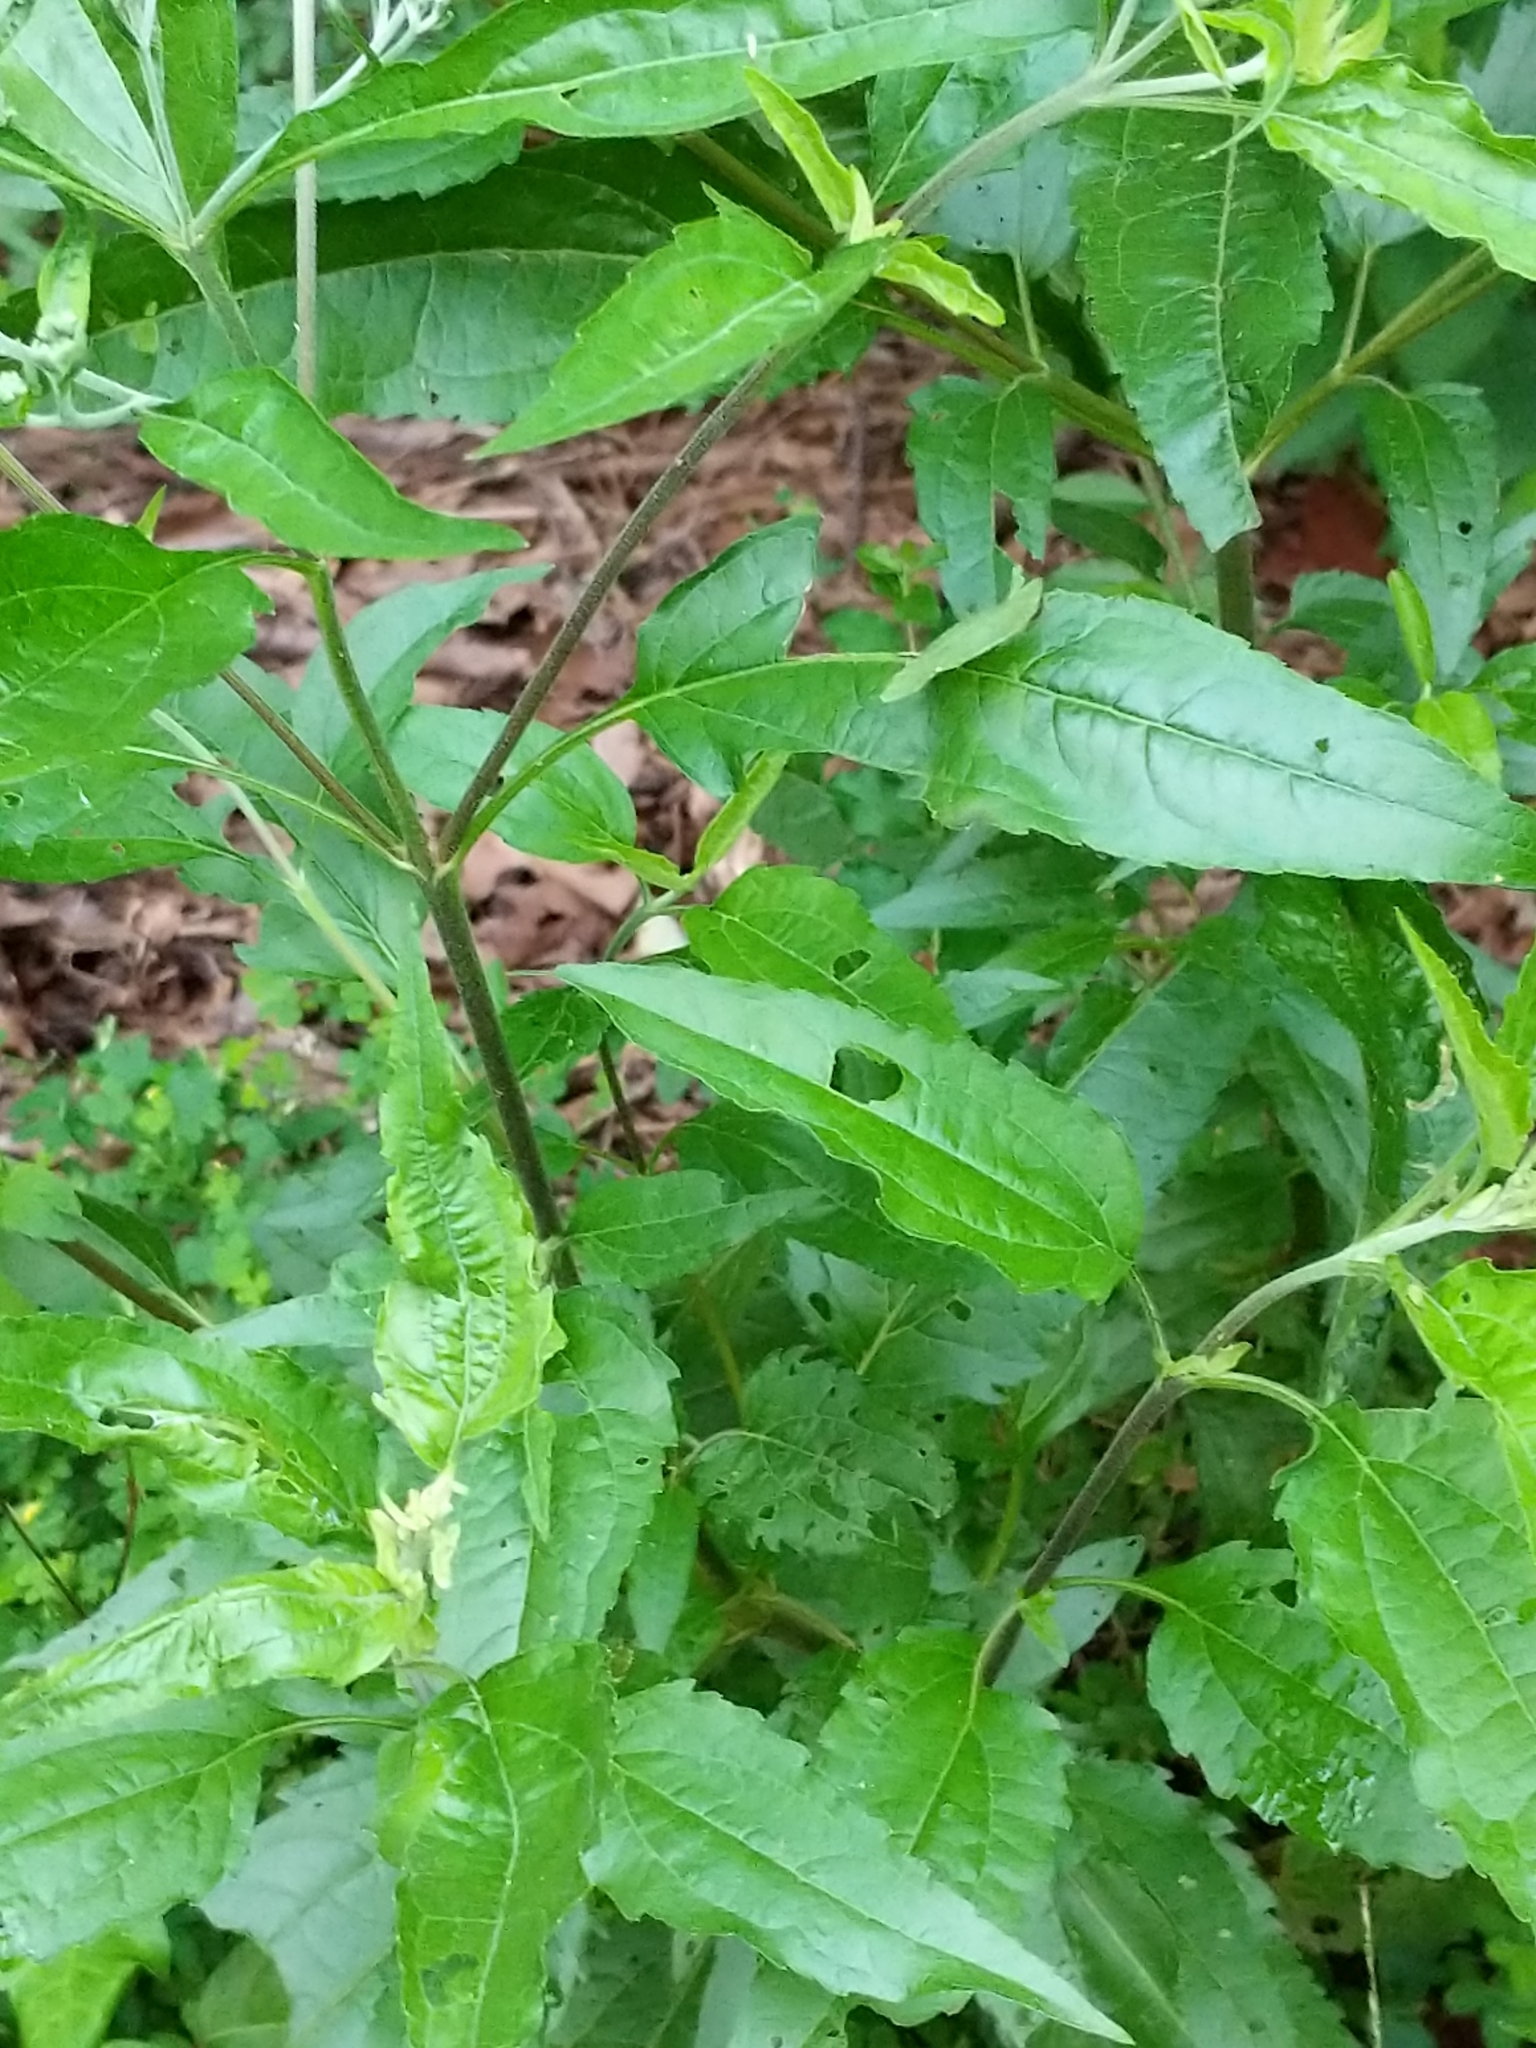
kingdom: Plantae
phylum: Tracheophyta
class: Magnoliopsida
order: Asterales
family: Asteraceae
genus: Eupatorium
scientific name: Eupatorium serotinum
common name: Late boneset
